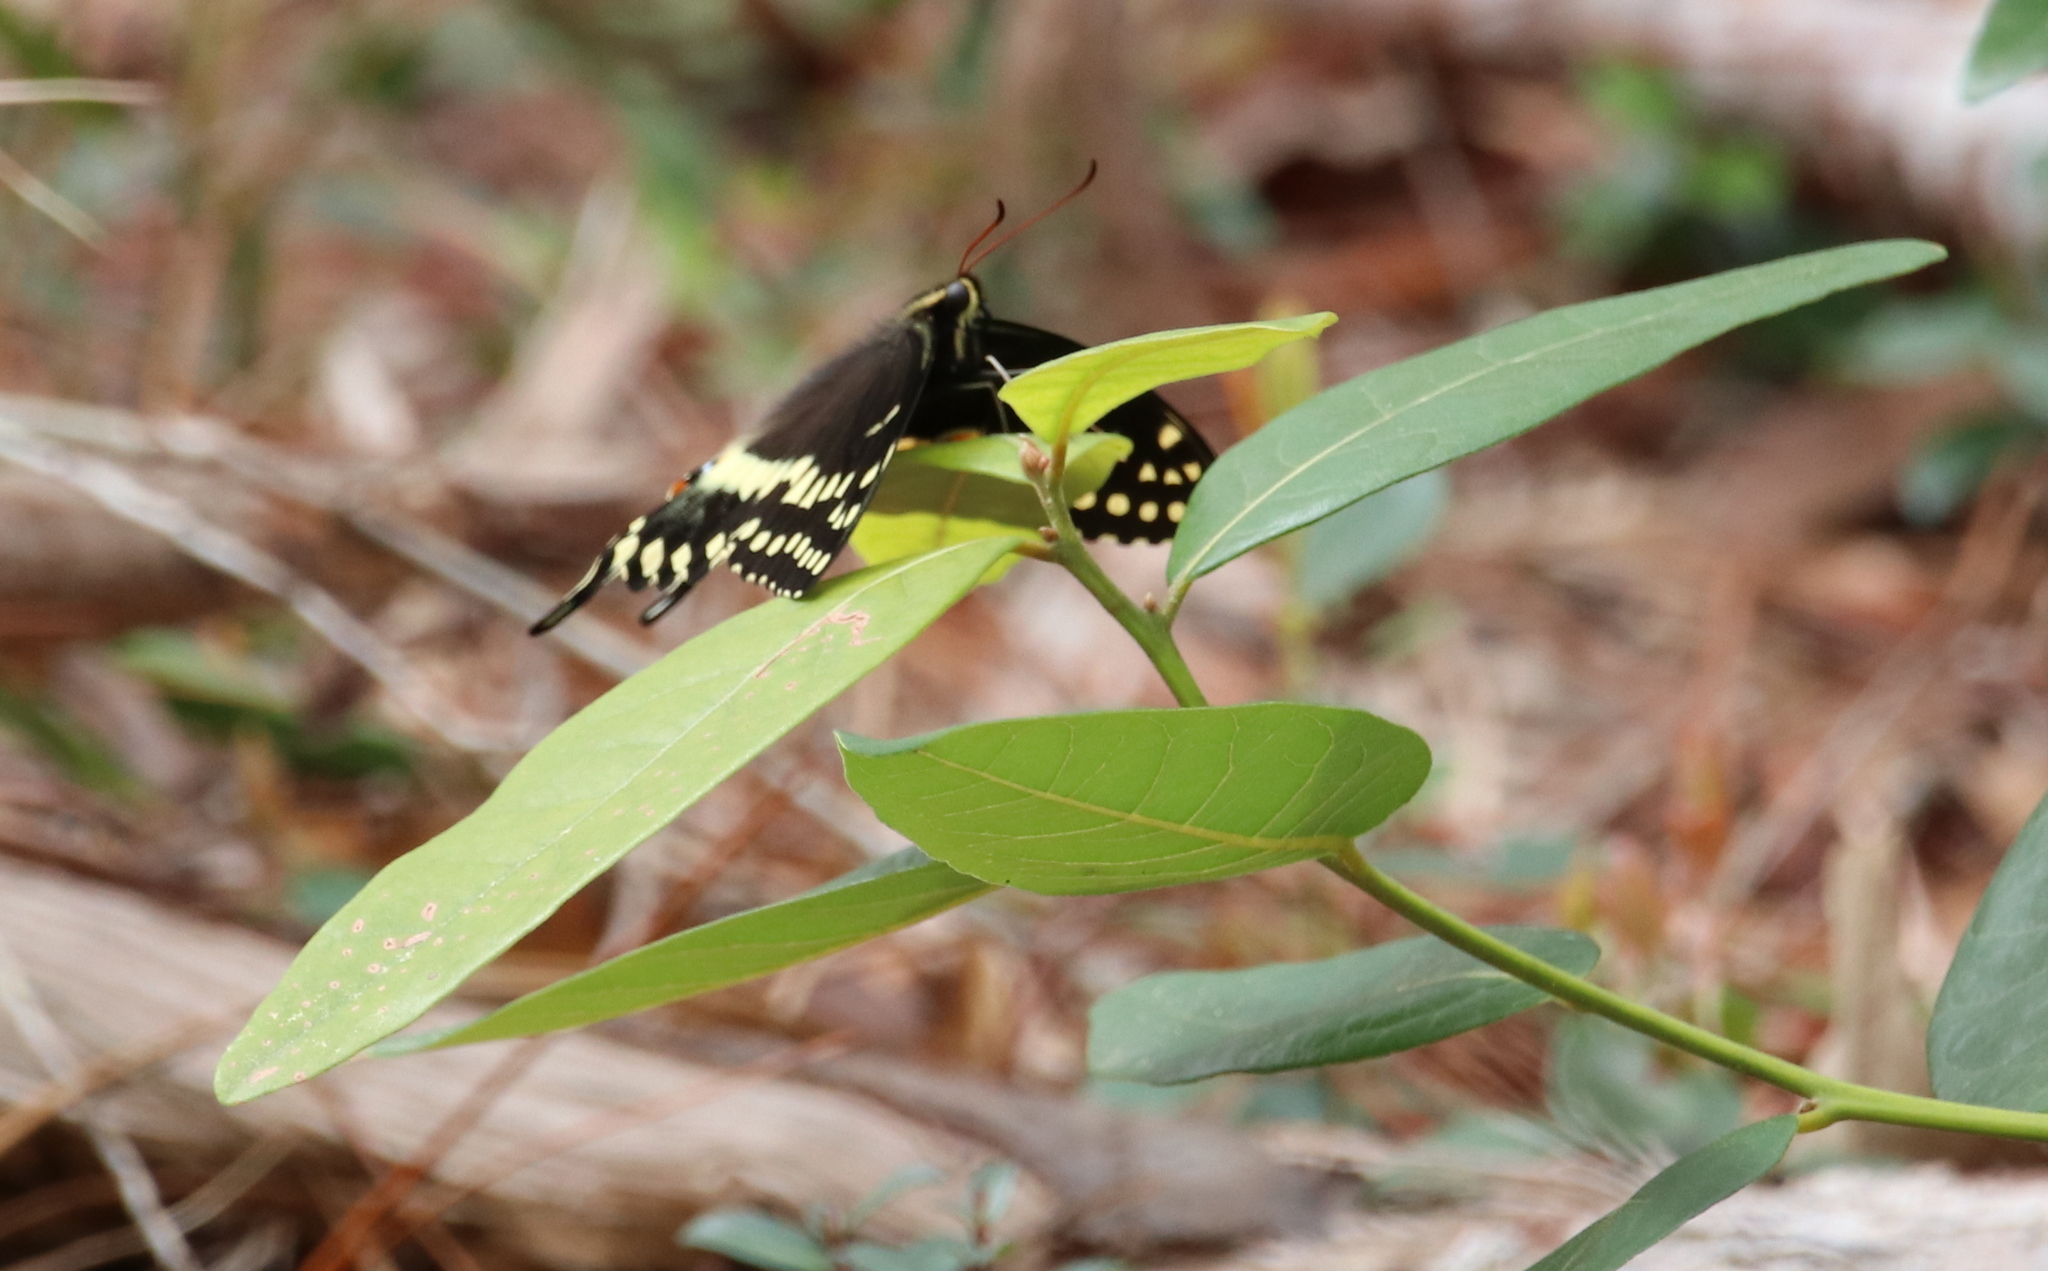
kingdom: Animalia
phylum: Arthropoda
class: Insecta
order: Lepidoptera
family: Papilionidae
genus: Papilio
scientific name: Papilio palamedes
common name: Palamedes swallowtail
